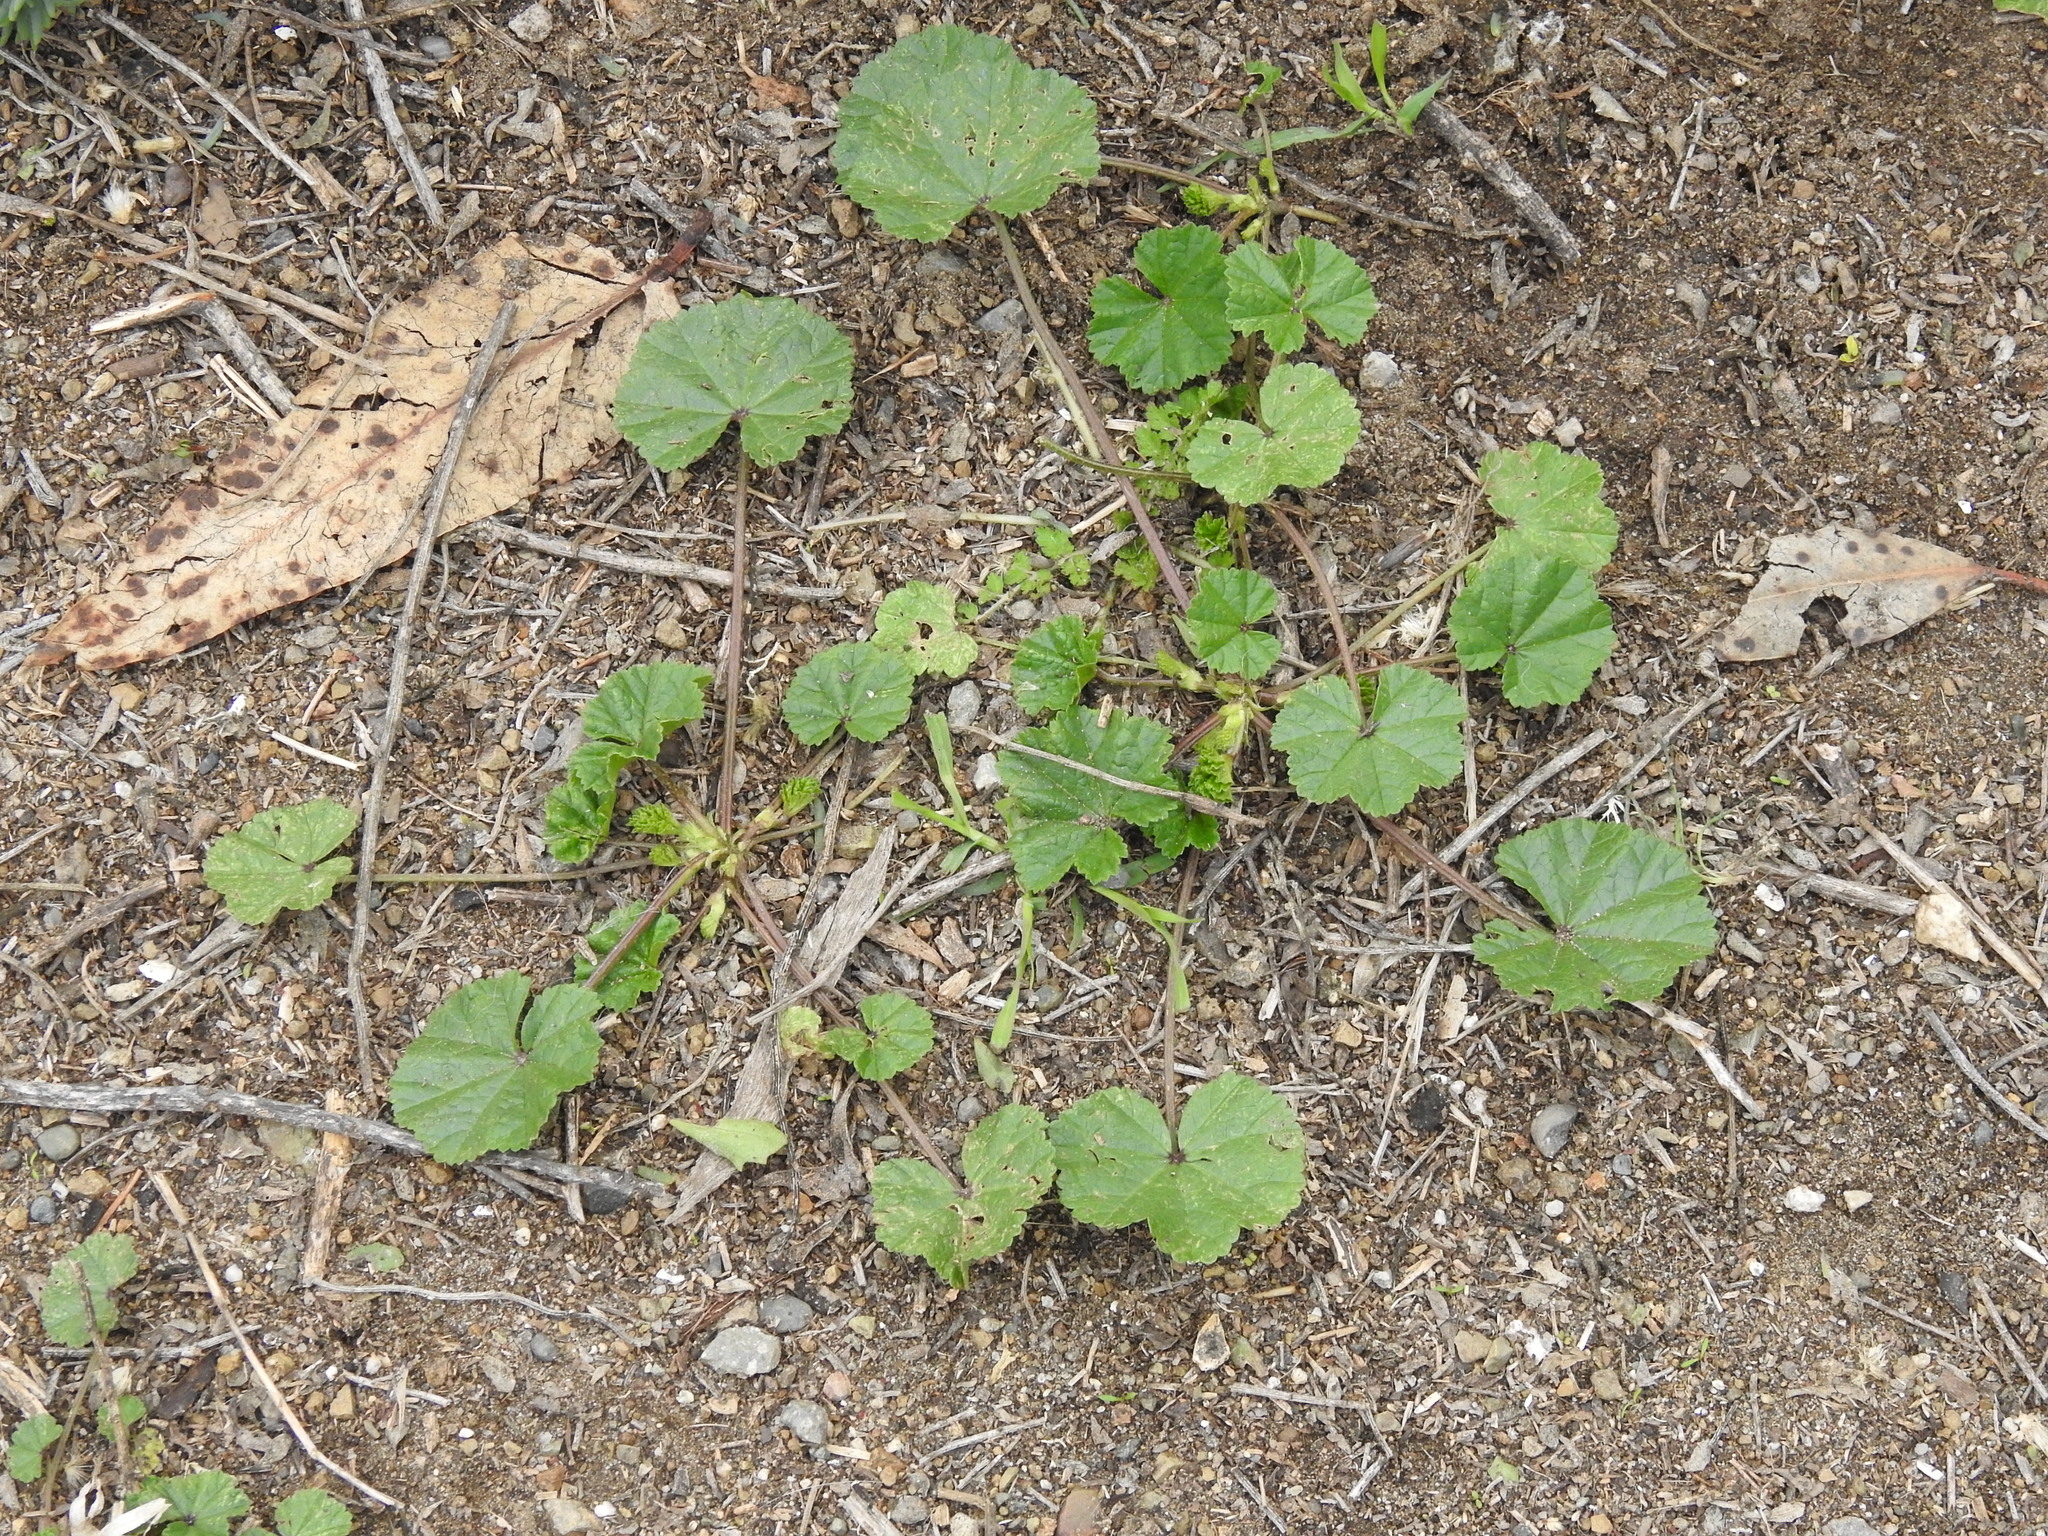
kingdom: Plantae
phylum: Tracheophyta
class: Magnoliopsida
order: Malvales
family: Malvaceae
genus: Malva
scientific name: Malva
